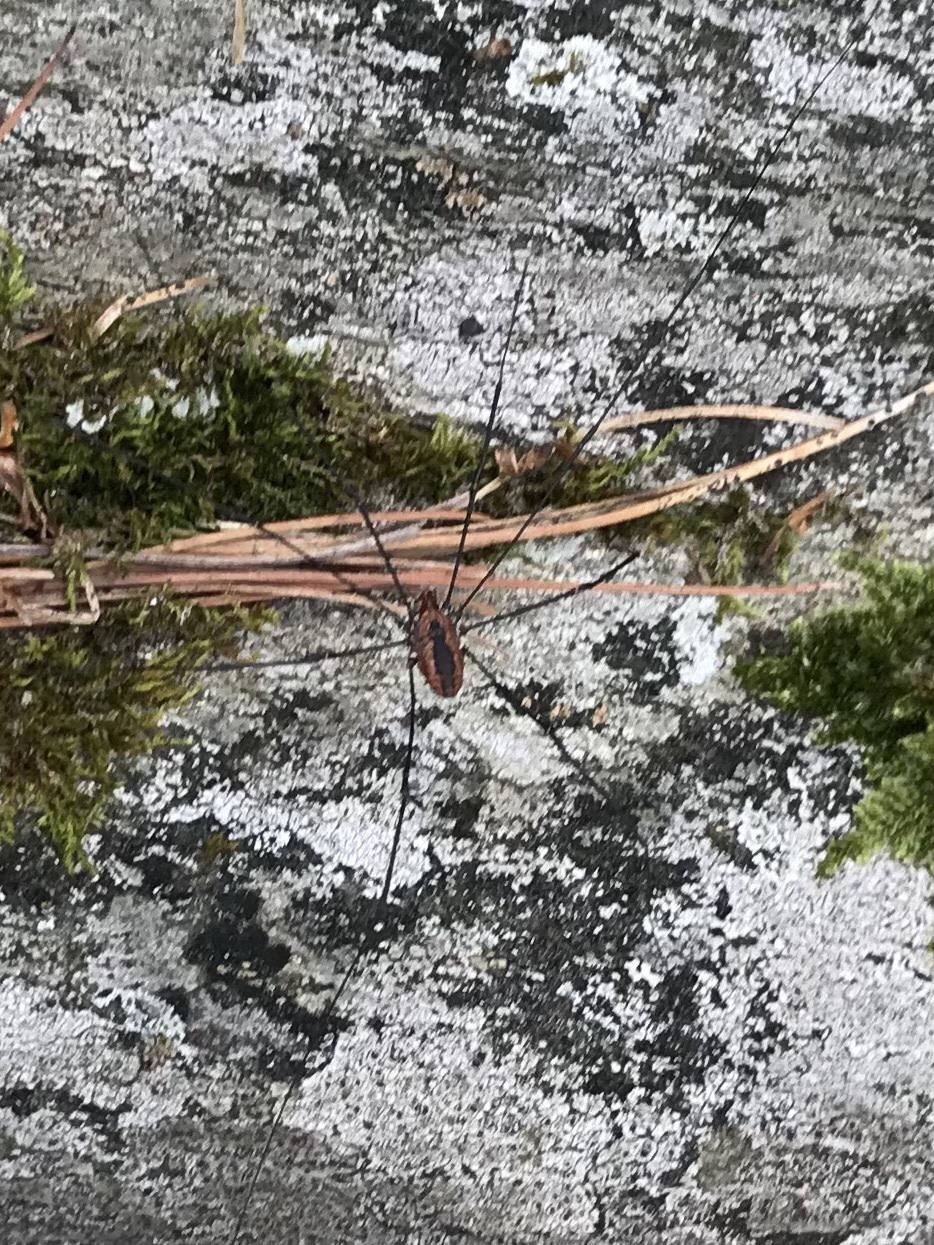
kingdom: Animalia
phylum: Arthropoda
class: Arachnida
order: Opiliones
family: Sclerosomatidae
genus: Leiobunum
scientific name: Leiobunum vittatum
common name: Eastern harvestman
